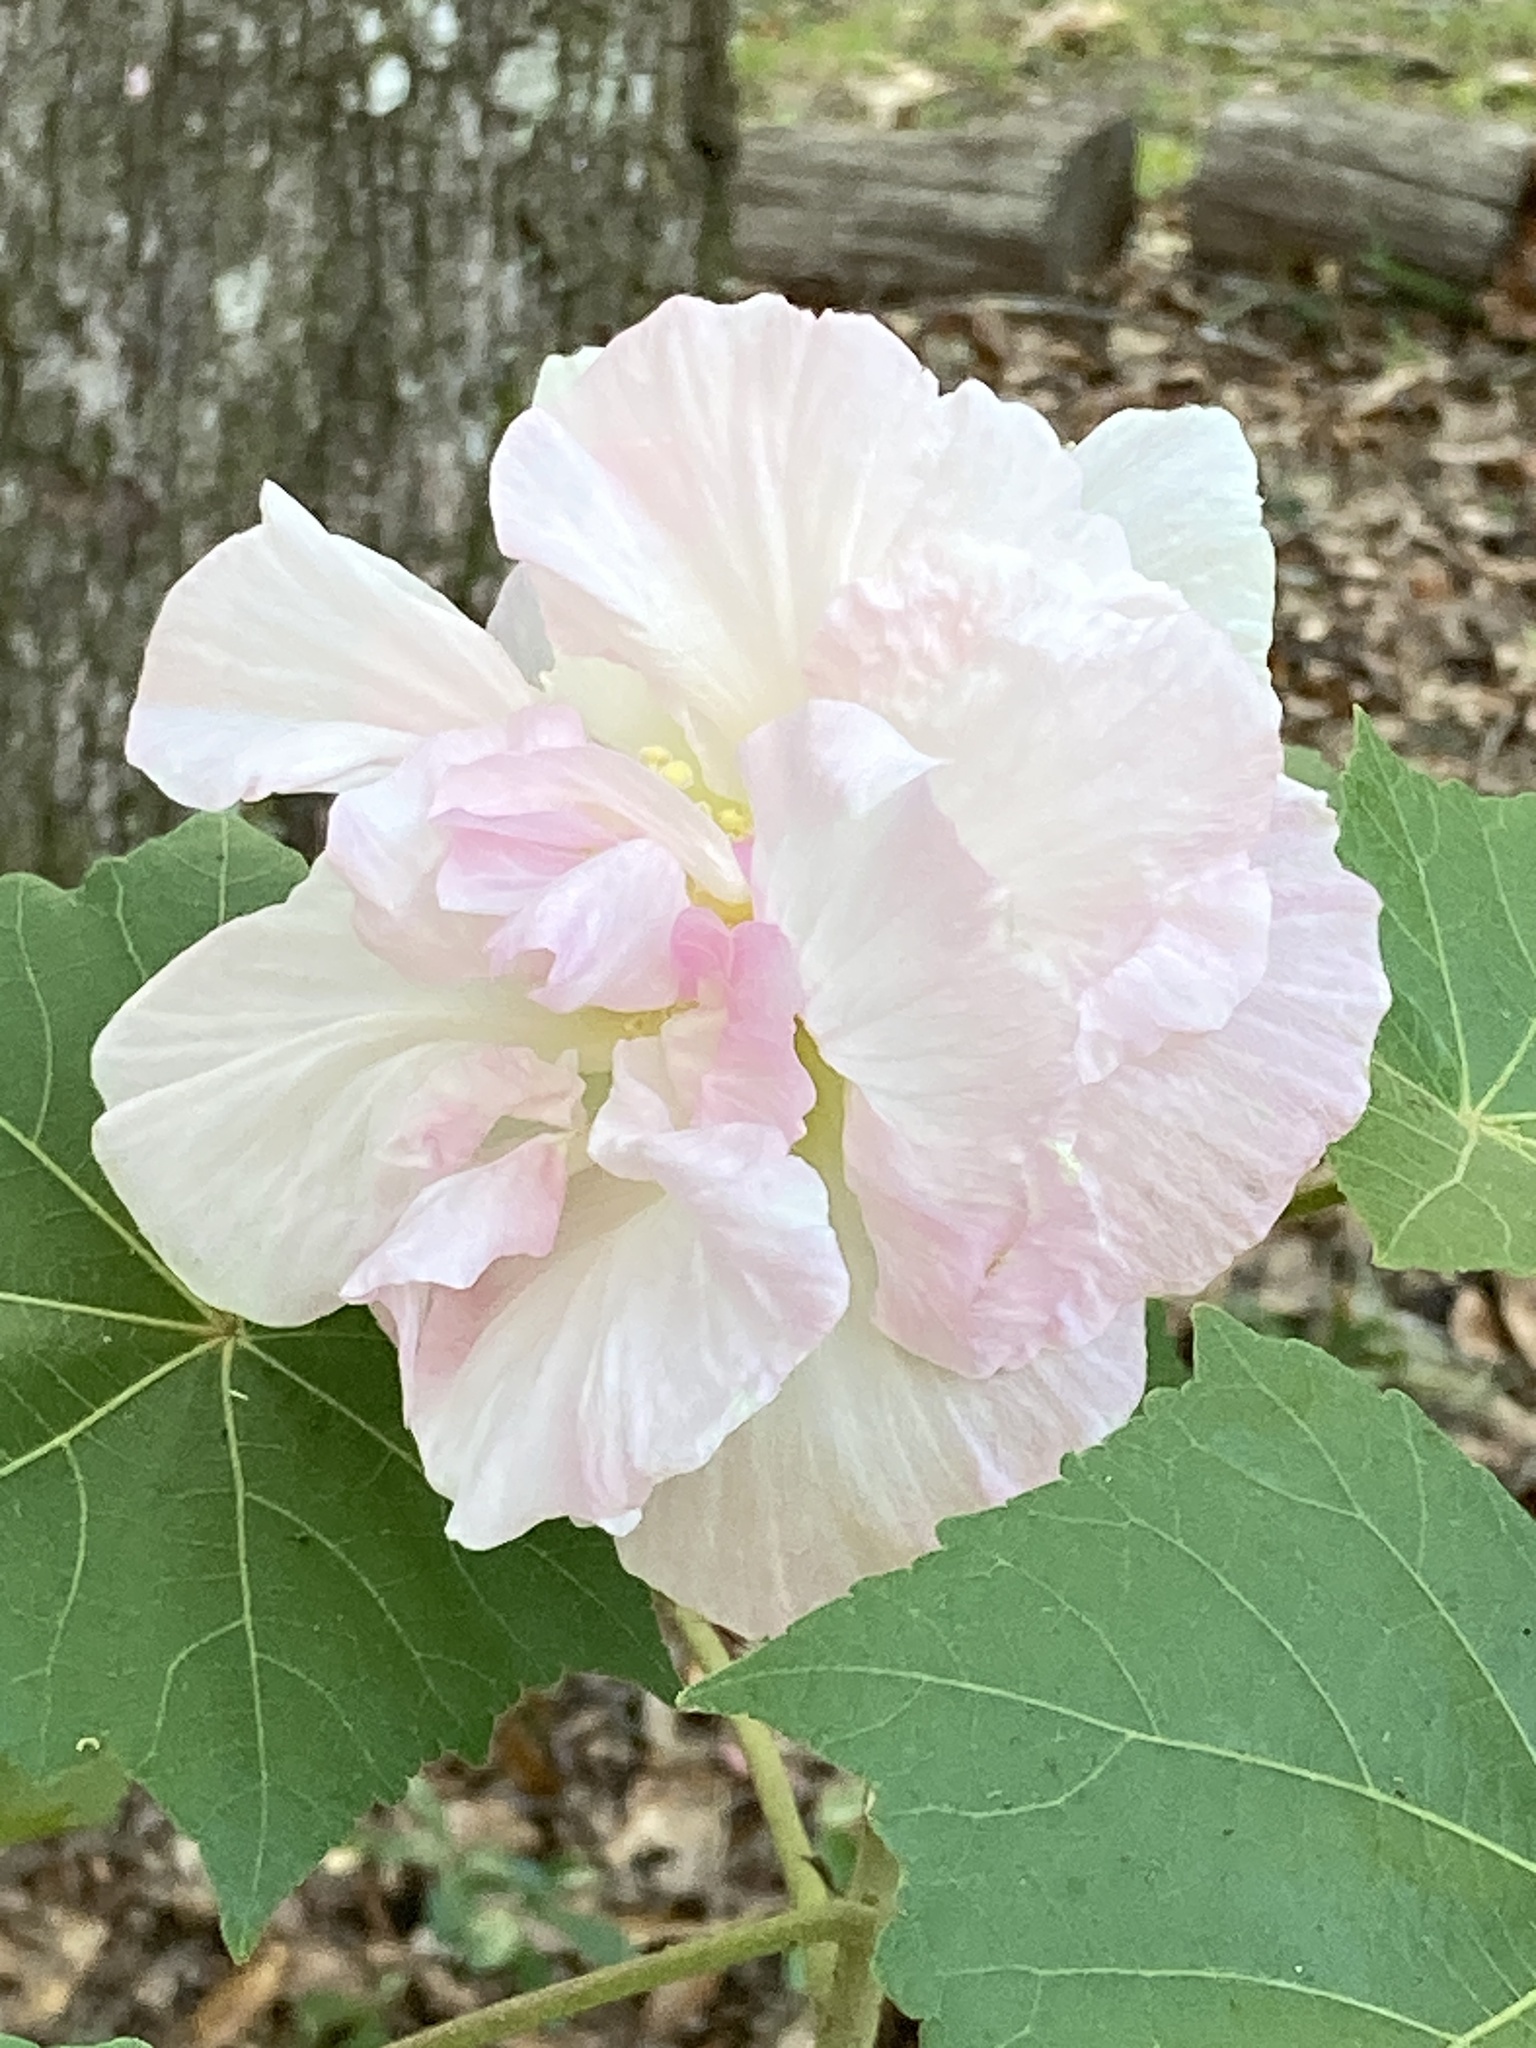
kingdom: Plantae
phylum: Tracheophyta
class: Magnoliopsida
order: Malvales
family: Malvaceae
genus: Hibiscus
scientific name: Hibiscus mutabilis
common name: Dixie rosemallow
